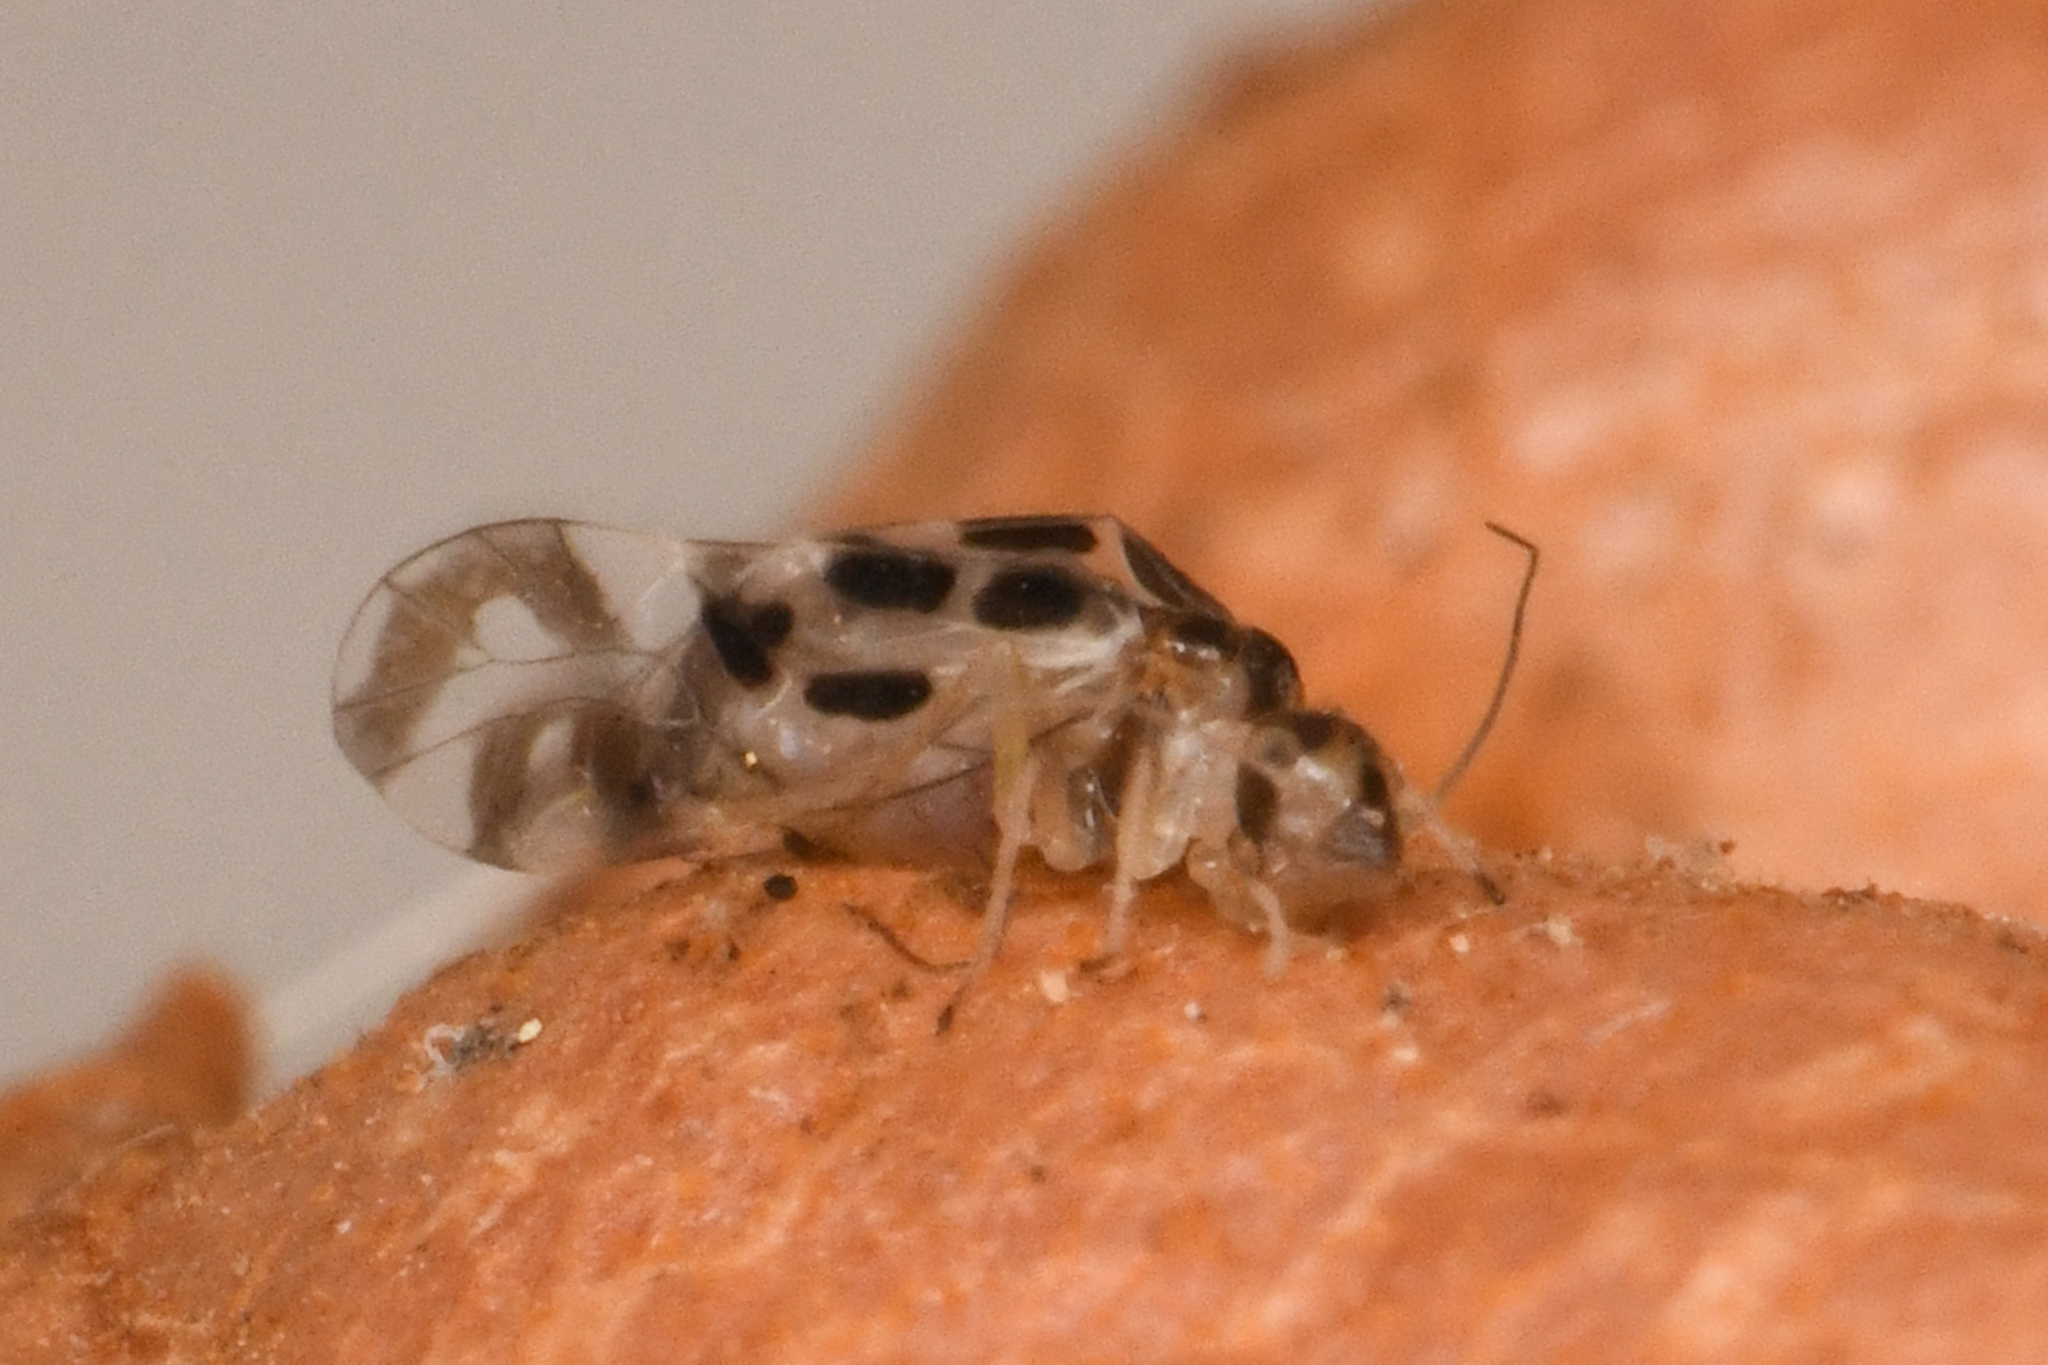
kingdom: Animalia
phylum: Arthropoda
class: Insecta
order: Psocodea
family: Stenopsocidae
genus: Graphopsocus
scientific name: Graphopsocus cruciatus
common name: Lizard bark louse
